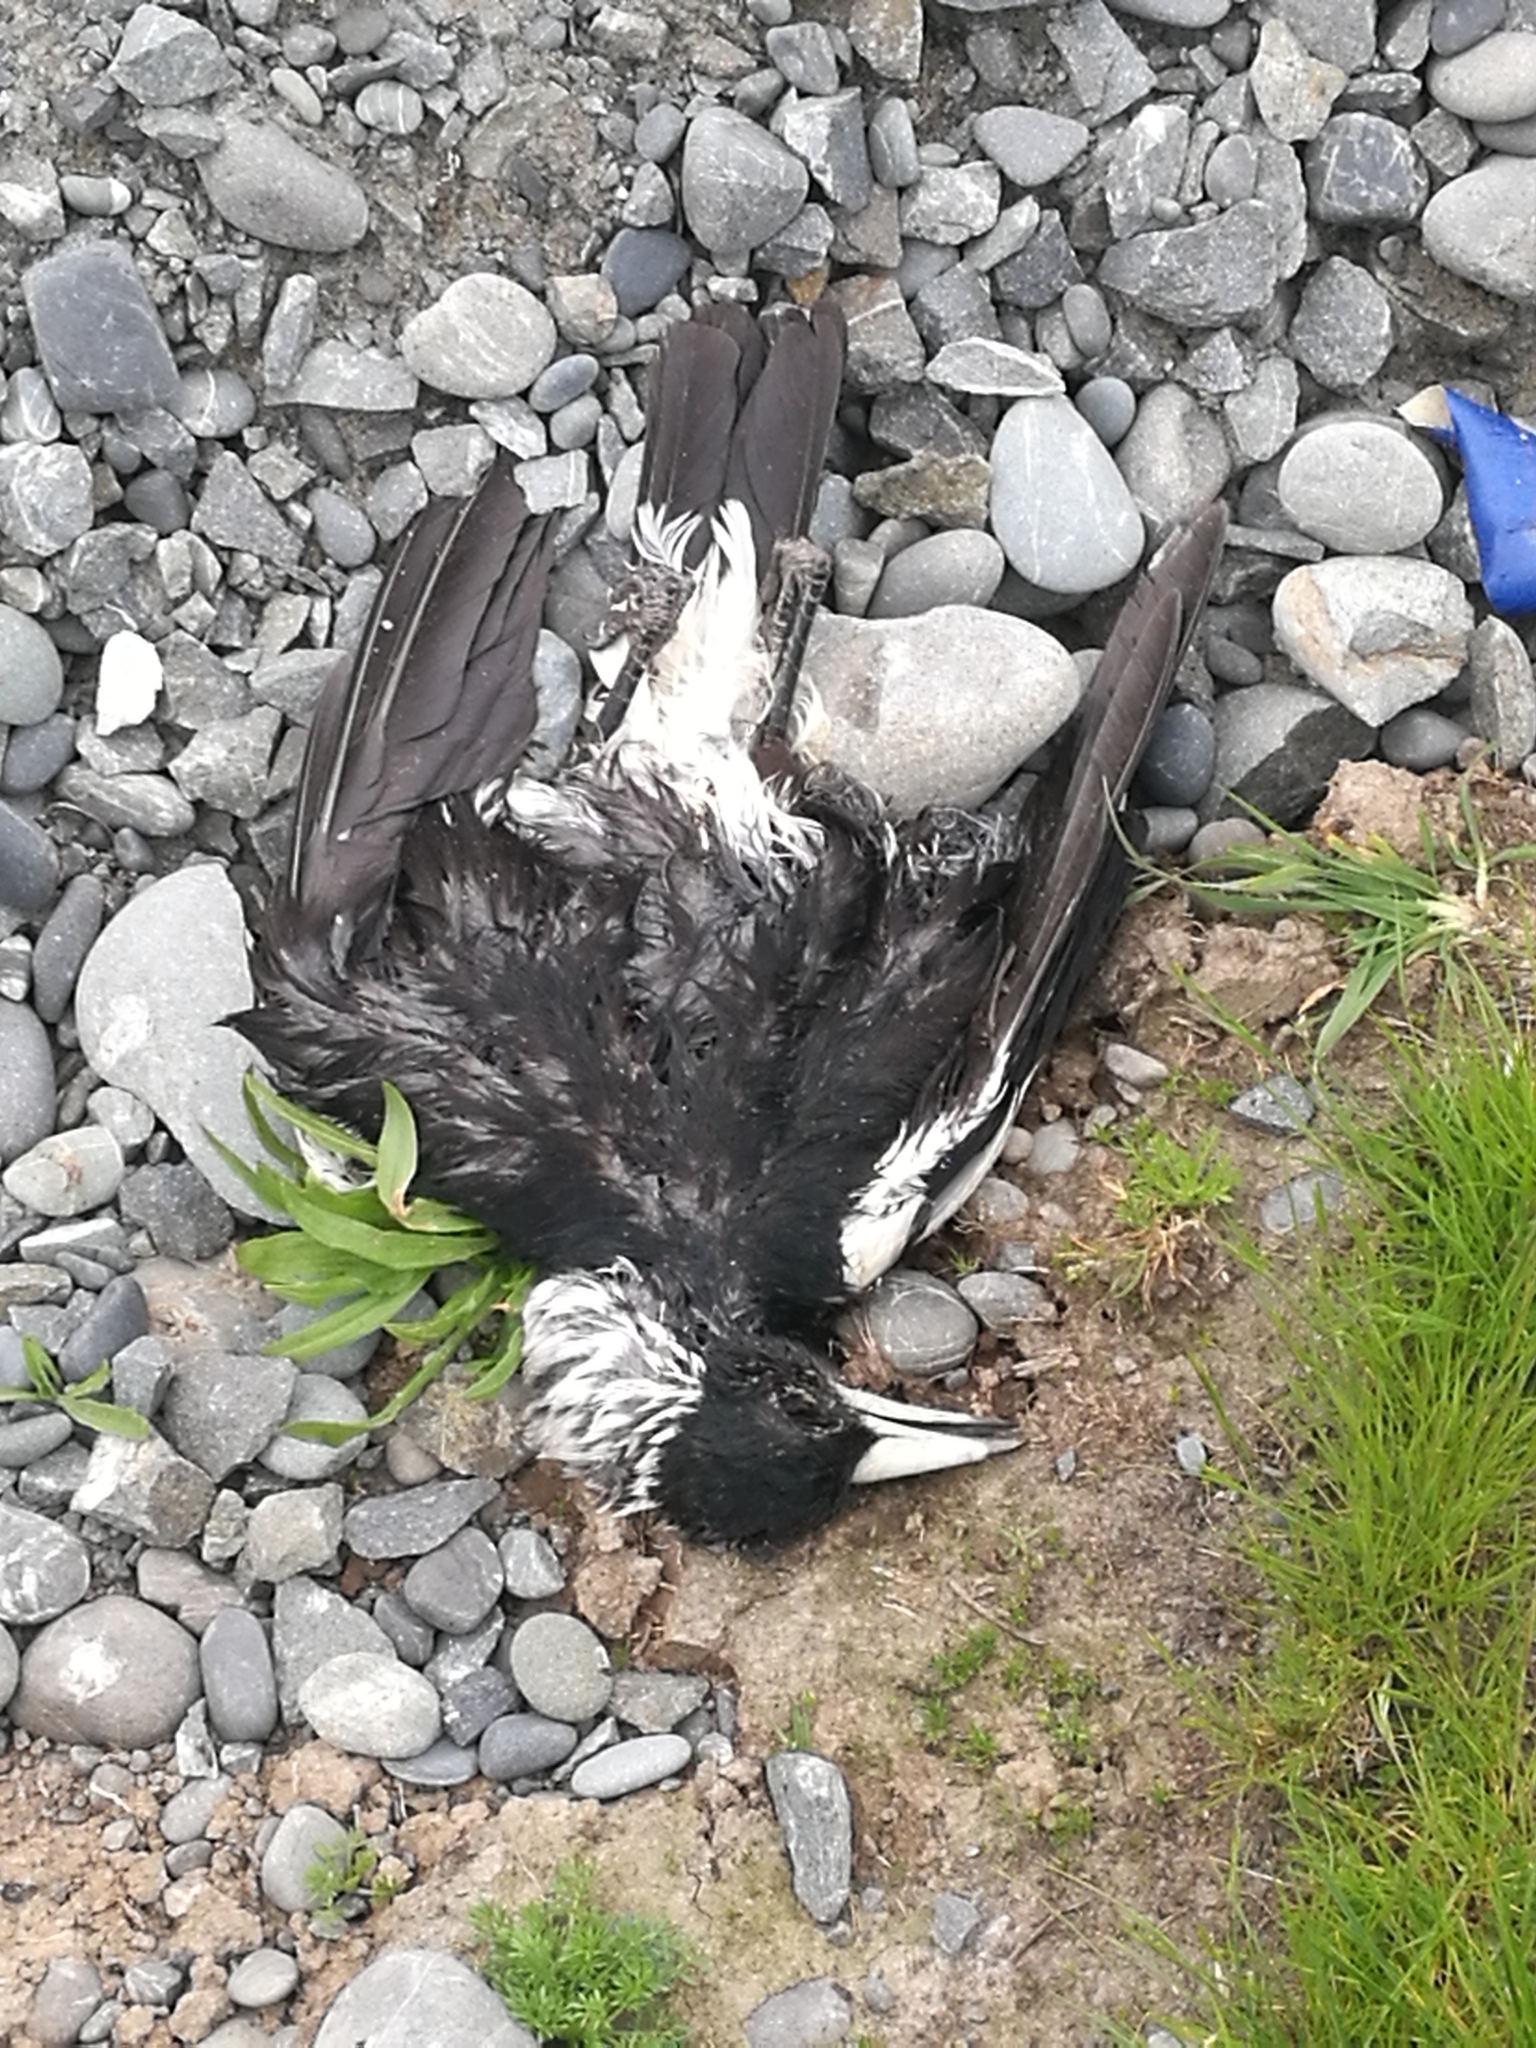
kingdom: Animalia
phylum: Chordata
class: Aves
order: Passeriformes
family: Cracticidae
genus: Gymnorhina
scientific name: Gymnorhina tibicen
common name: Australian magpie
